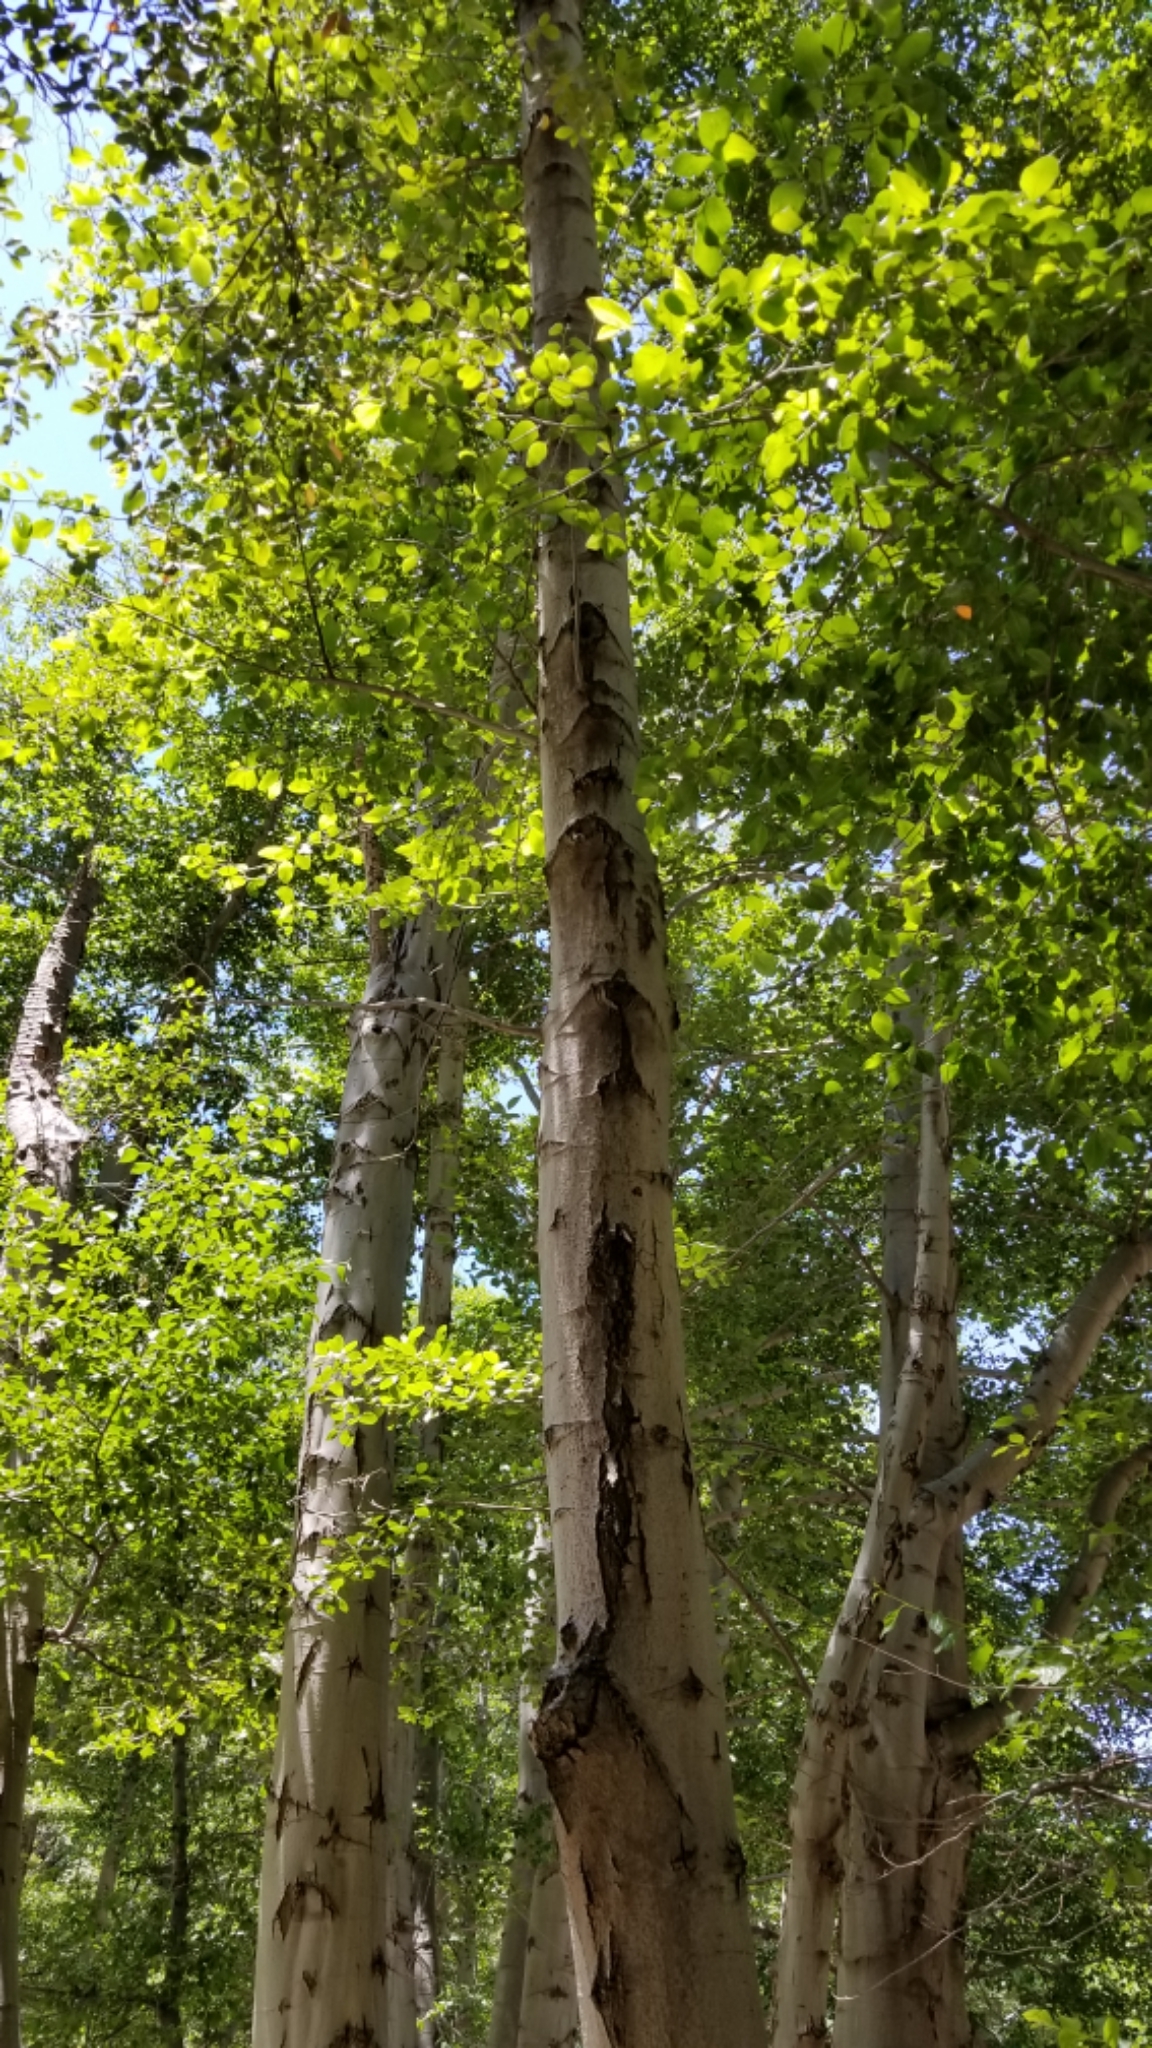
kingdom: Plantae
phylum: Tracheophyta
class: Magnoliopsida
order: Fagales
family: Betulaceae
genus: Alnus
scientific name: Alnus rhombifolia
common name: California alder
